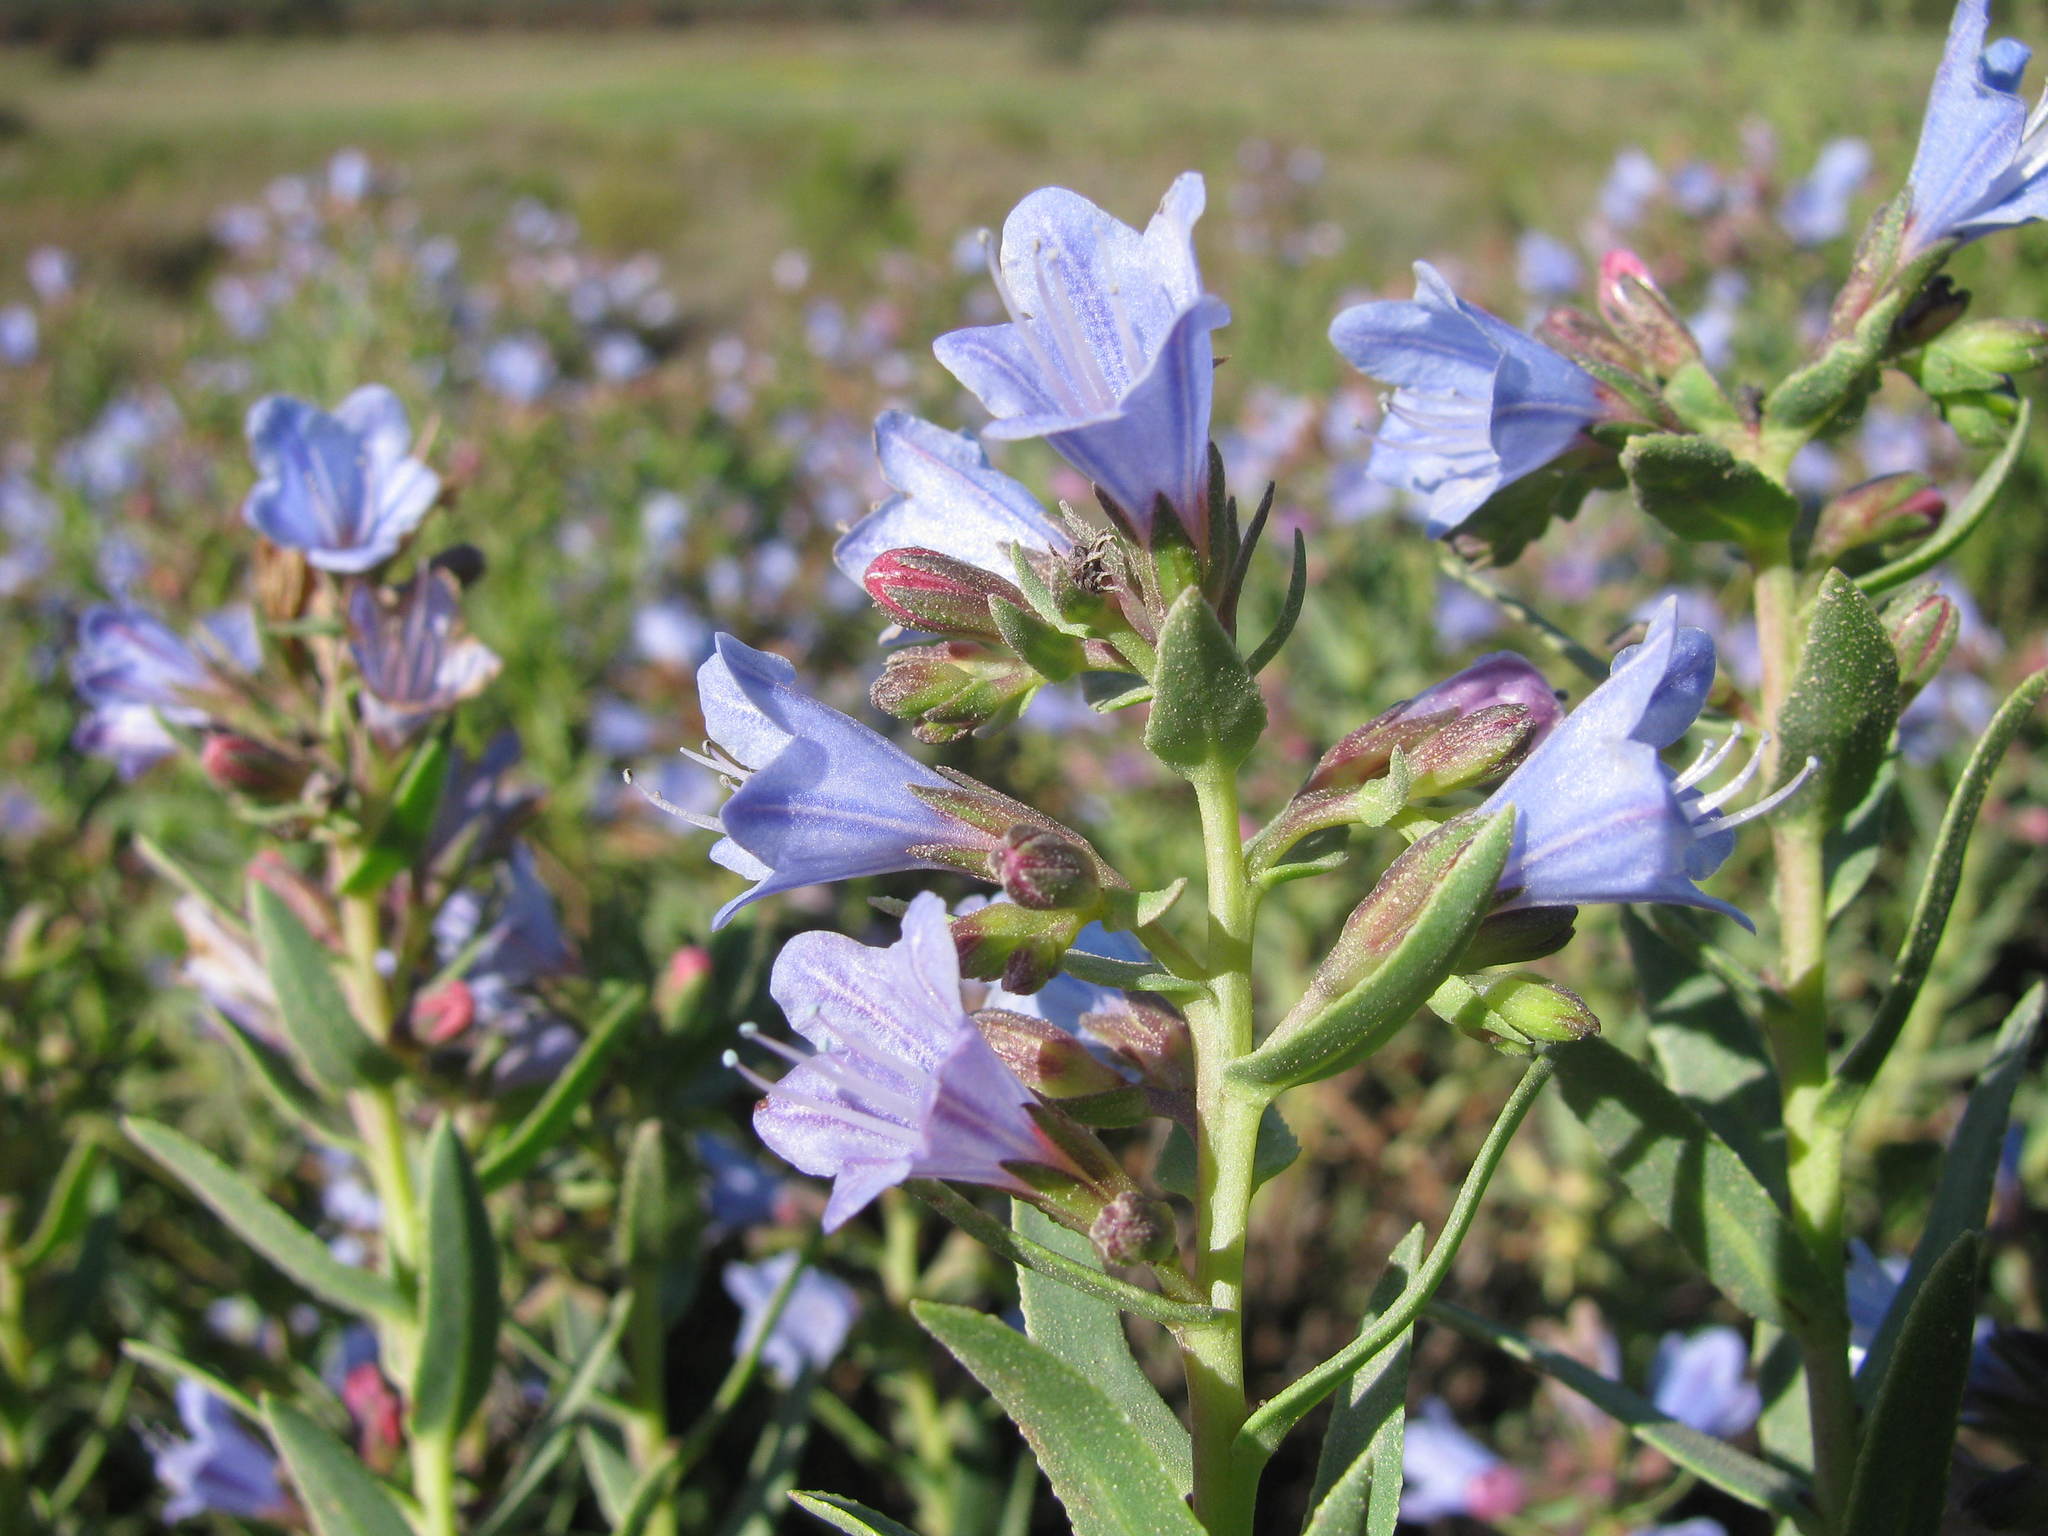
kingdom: Plantae
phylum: Tracheophyta
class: Magnoliopsida
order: Boraginales
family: Boraginaceae
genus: Lobostemon
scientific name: Lobostemon glaucophyllus
